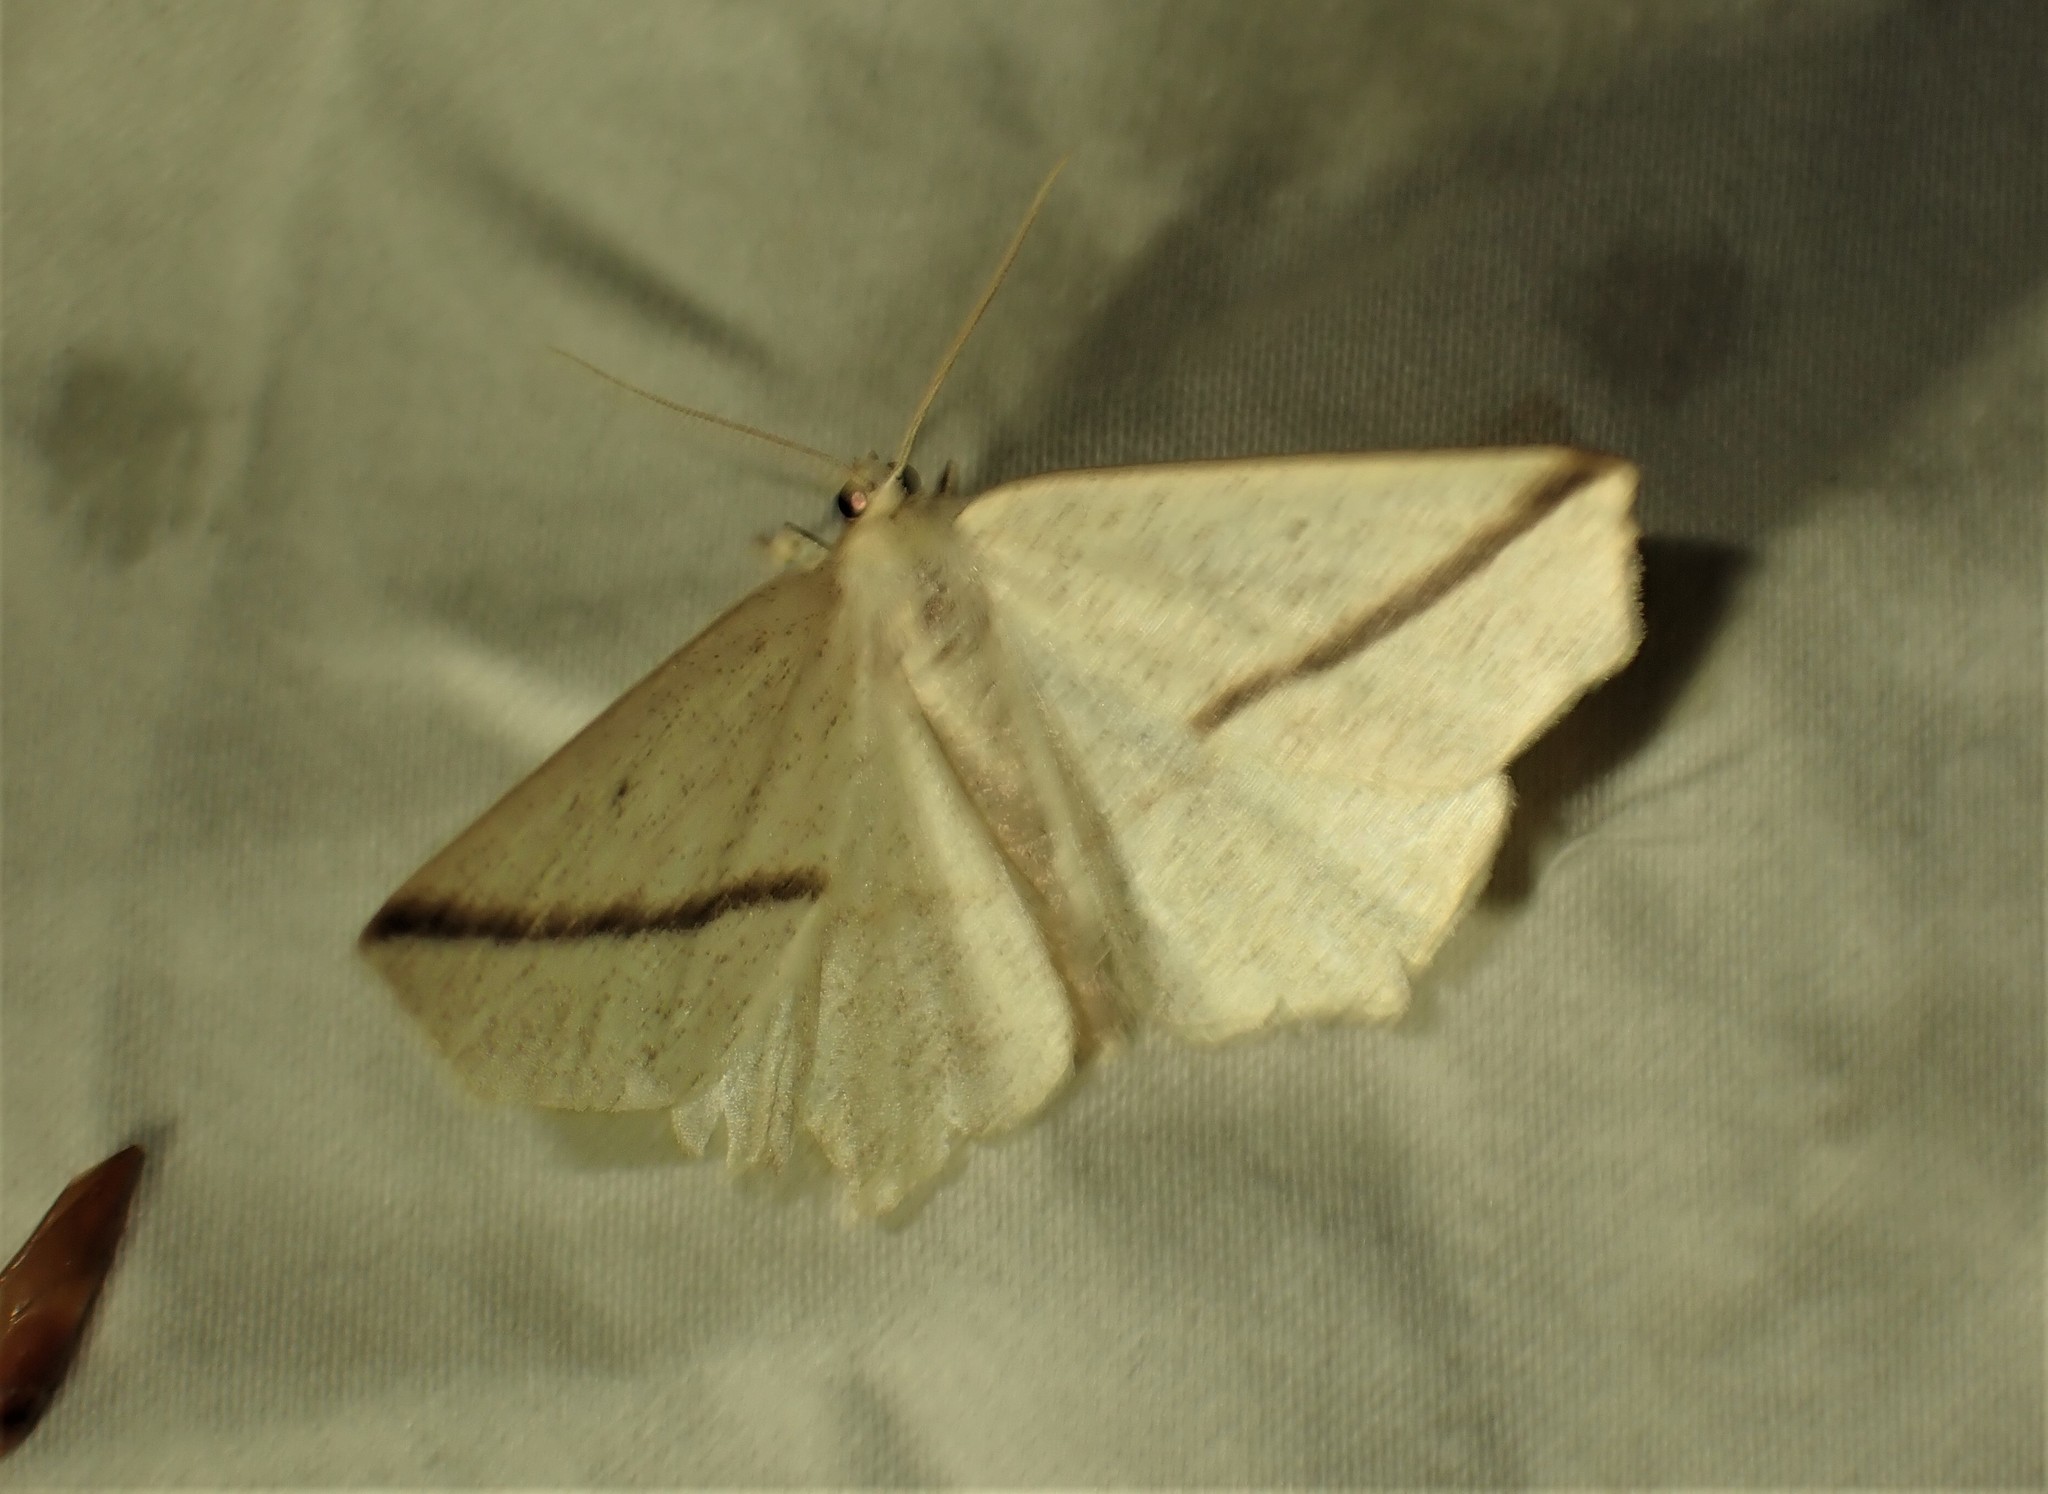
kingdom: Animalia
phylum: Arthropoda
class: Insecta
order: Lepidoptera
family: Geometridae
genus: Tetracis
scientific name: Tetracis crocallata
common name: Yellow slant-line
